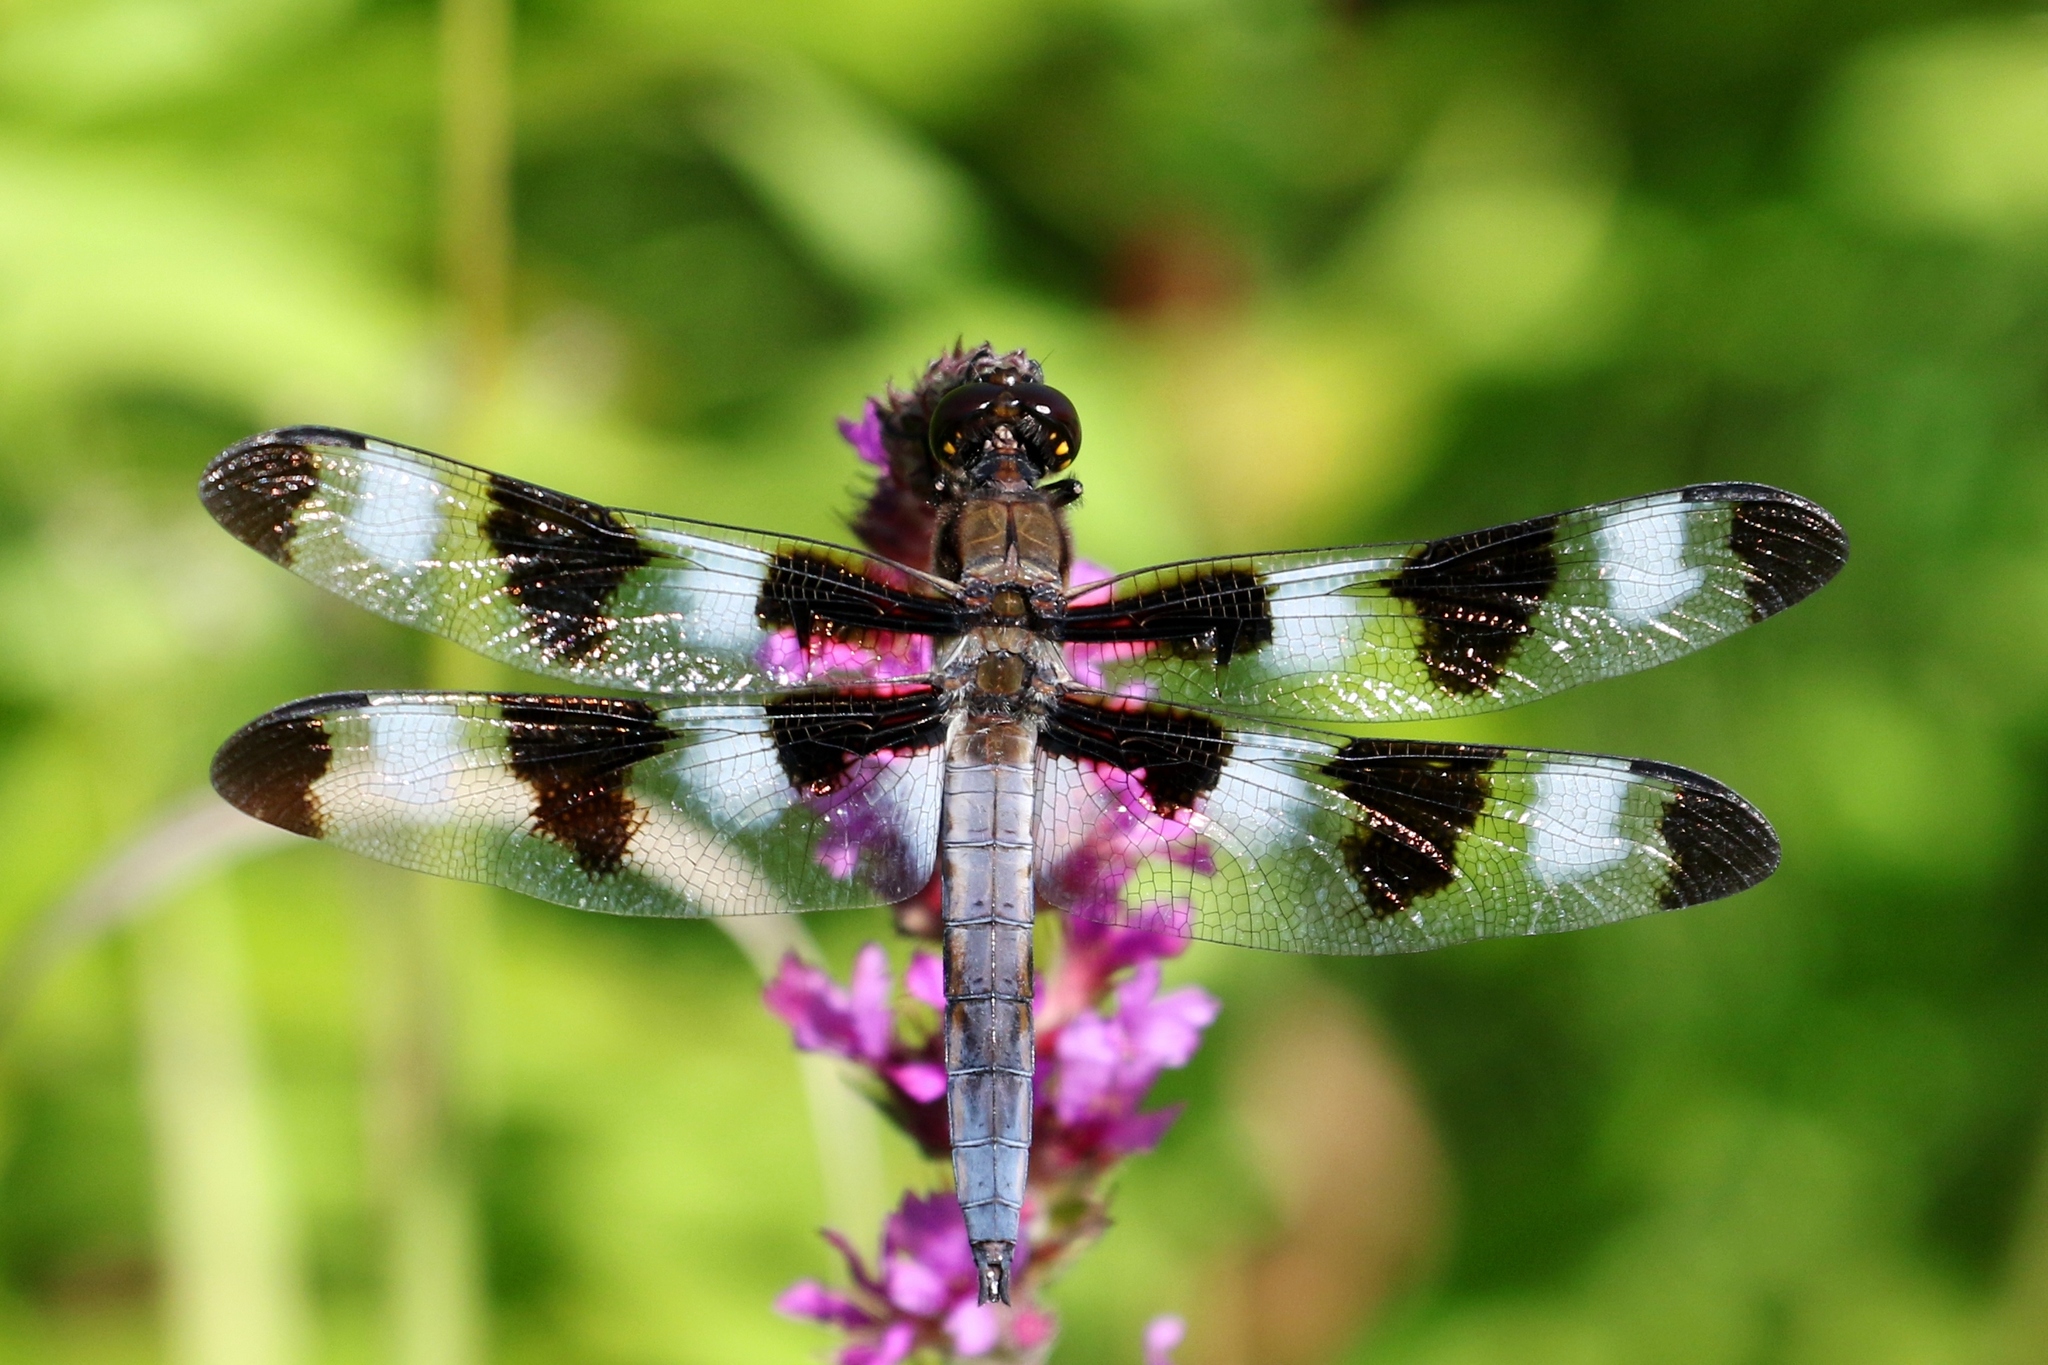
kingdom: Animalia
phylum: Arthropoda
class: Insecta
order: Odonata
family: Libellulidae
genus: Libellula
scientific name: Libellula pulchella
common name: Twelve-spotted skimmer
